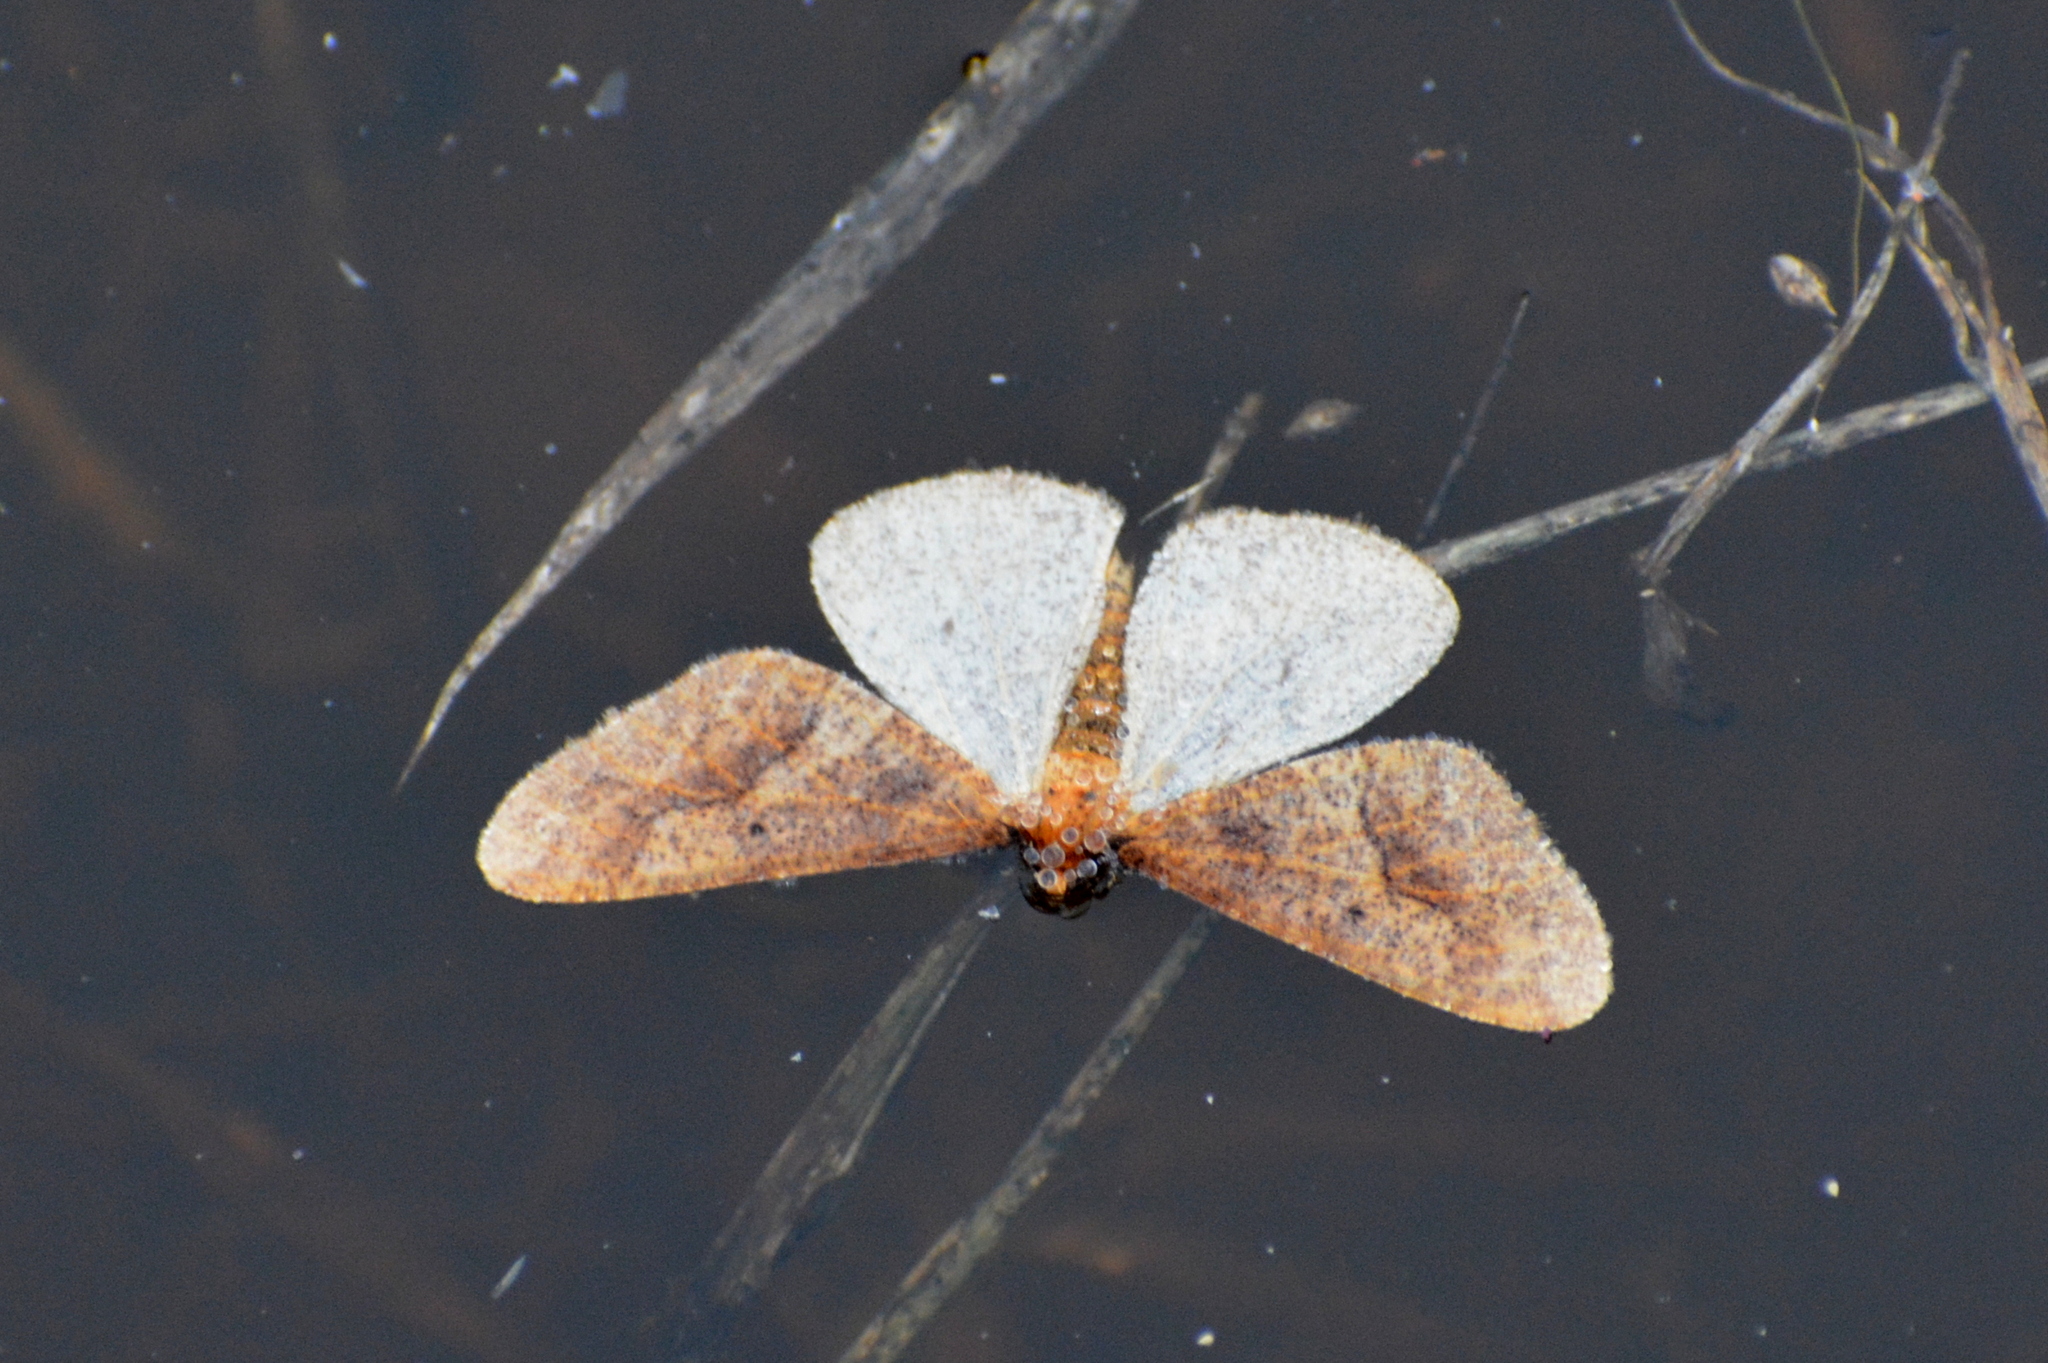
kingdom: Animalia
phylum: Arthropoda
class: Insecta
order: Lepidoptera
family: Geometridae
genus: Erannis
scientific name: Erannis defoliaria
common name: Mottled umber
